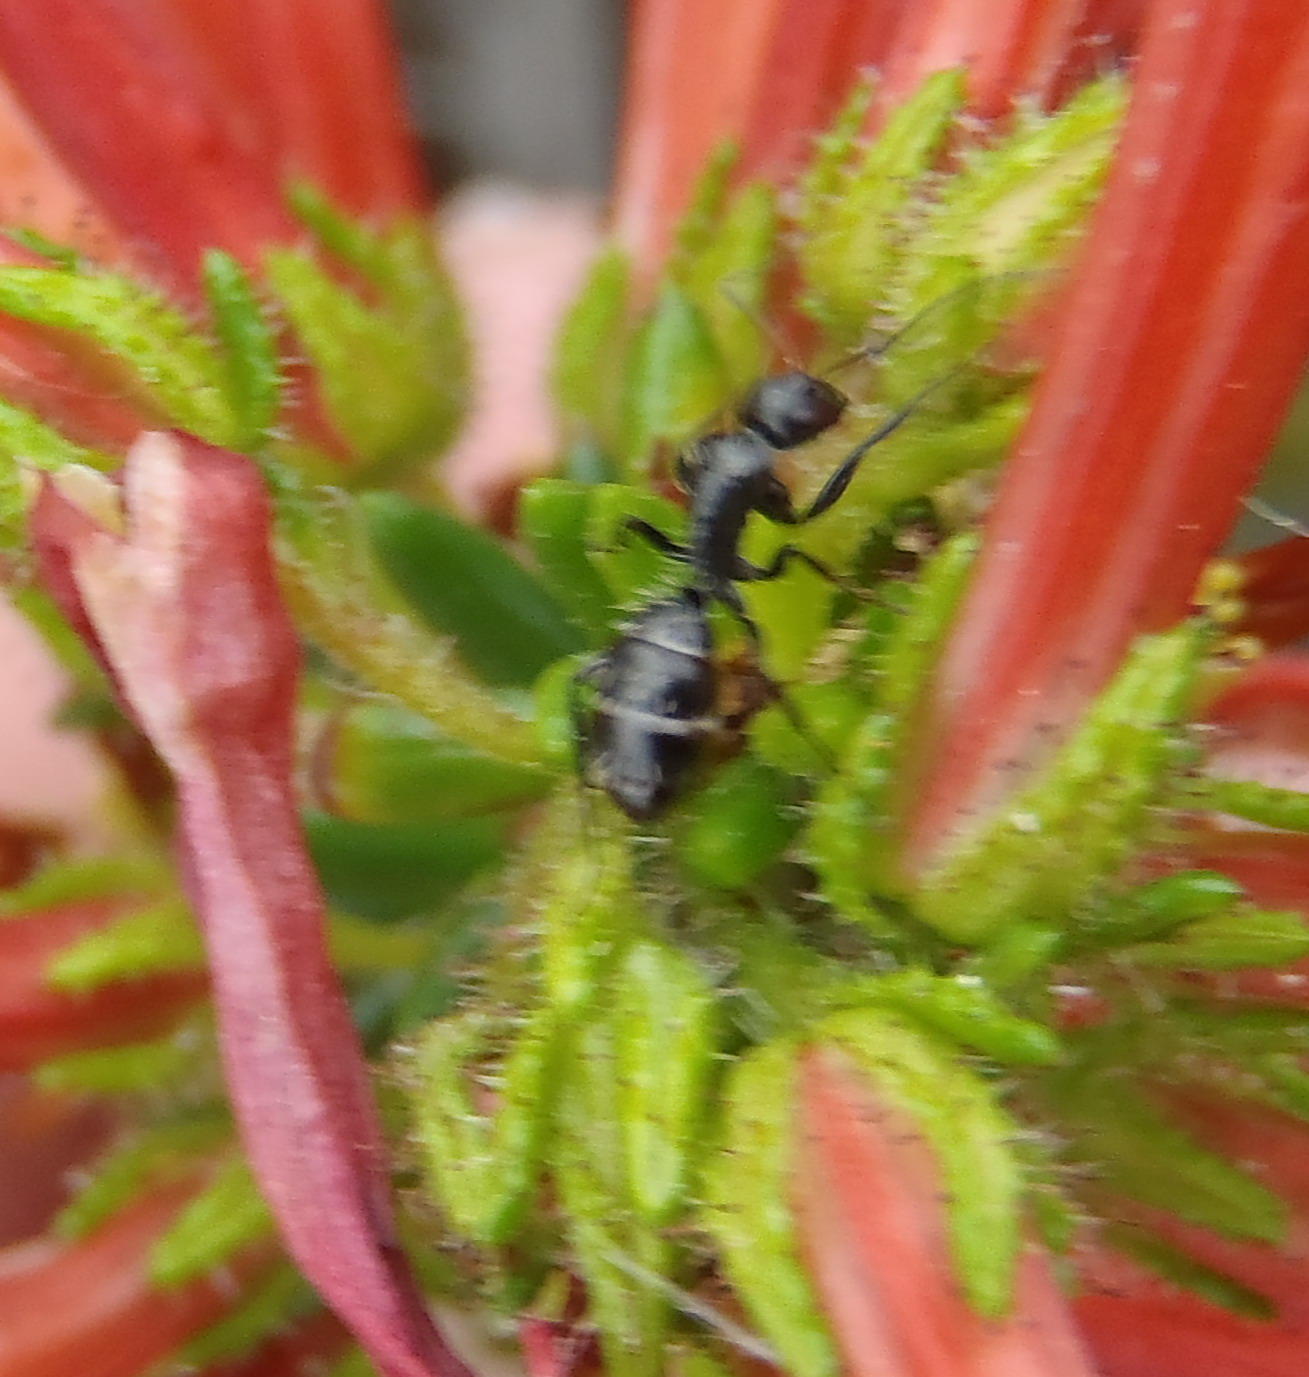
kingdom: Animalia
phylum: Arthropoda
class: Insecta
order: Hymenoptera
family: Formicidae
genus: Camponotus
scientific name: Camponotus niveosetosus
